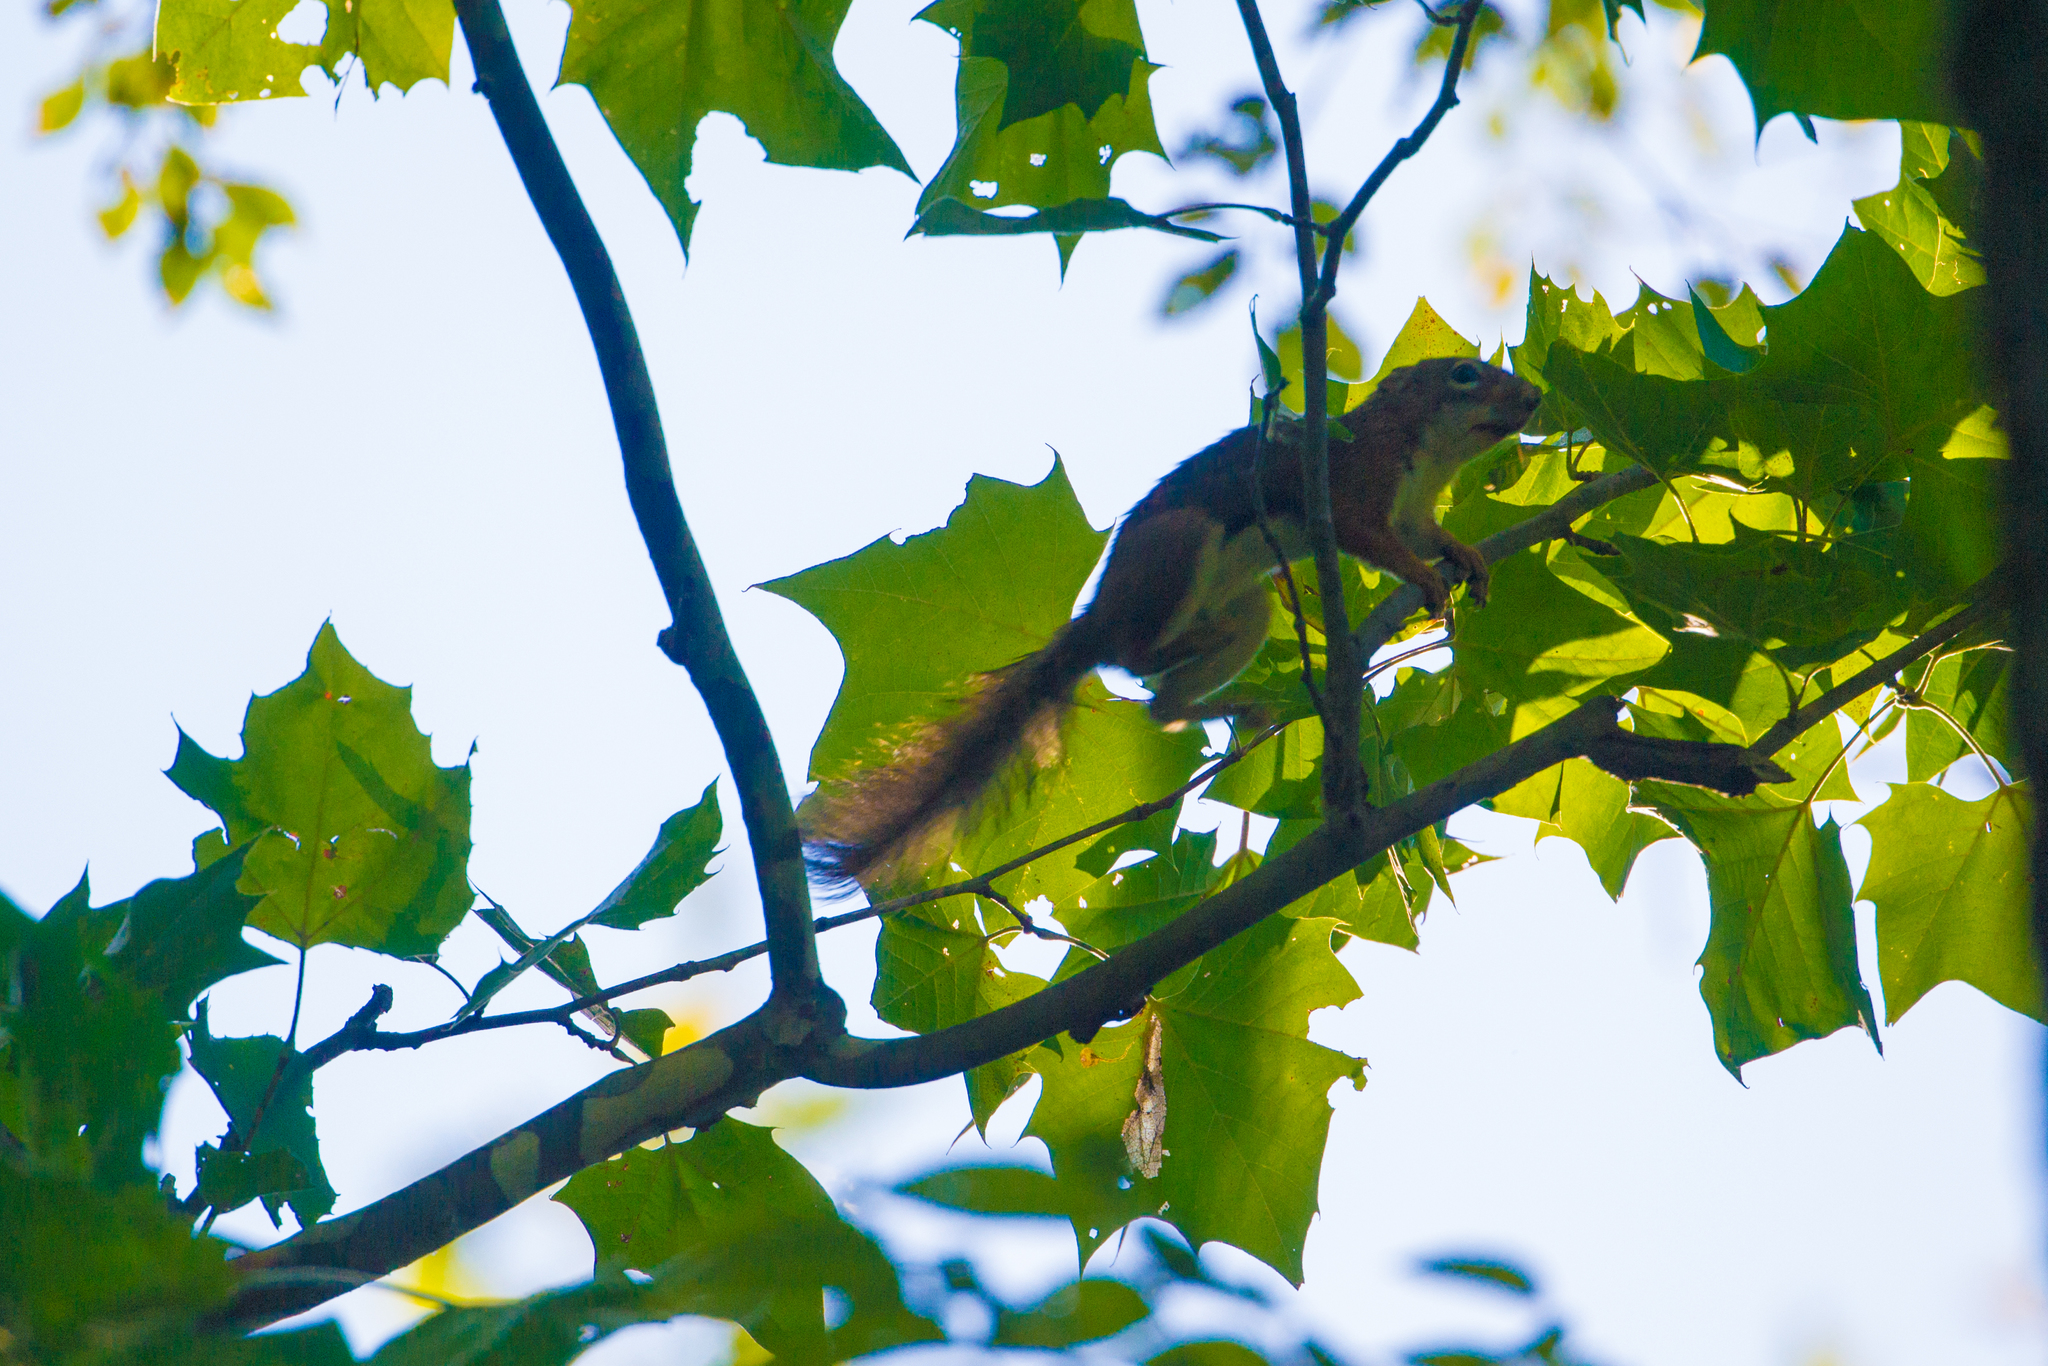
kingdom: Animalia
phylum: Chordata
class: Mammalia
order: Rodentia
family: Sciuridae
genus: Tamiasciurus
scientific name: Tamiasciurus hudsonicus
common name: Red squirrel
